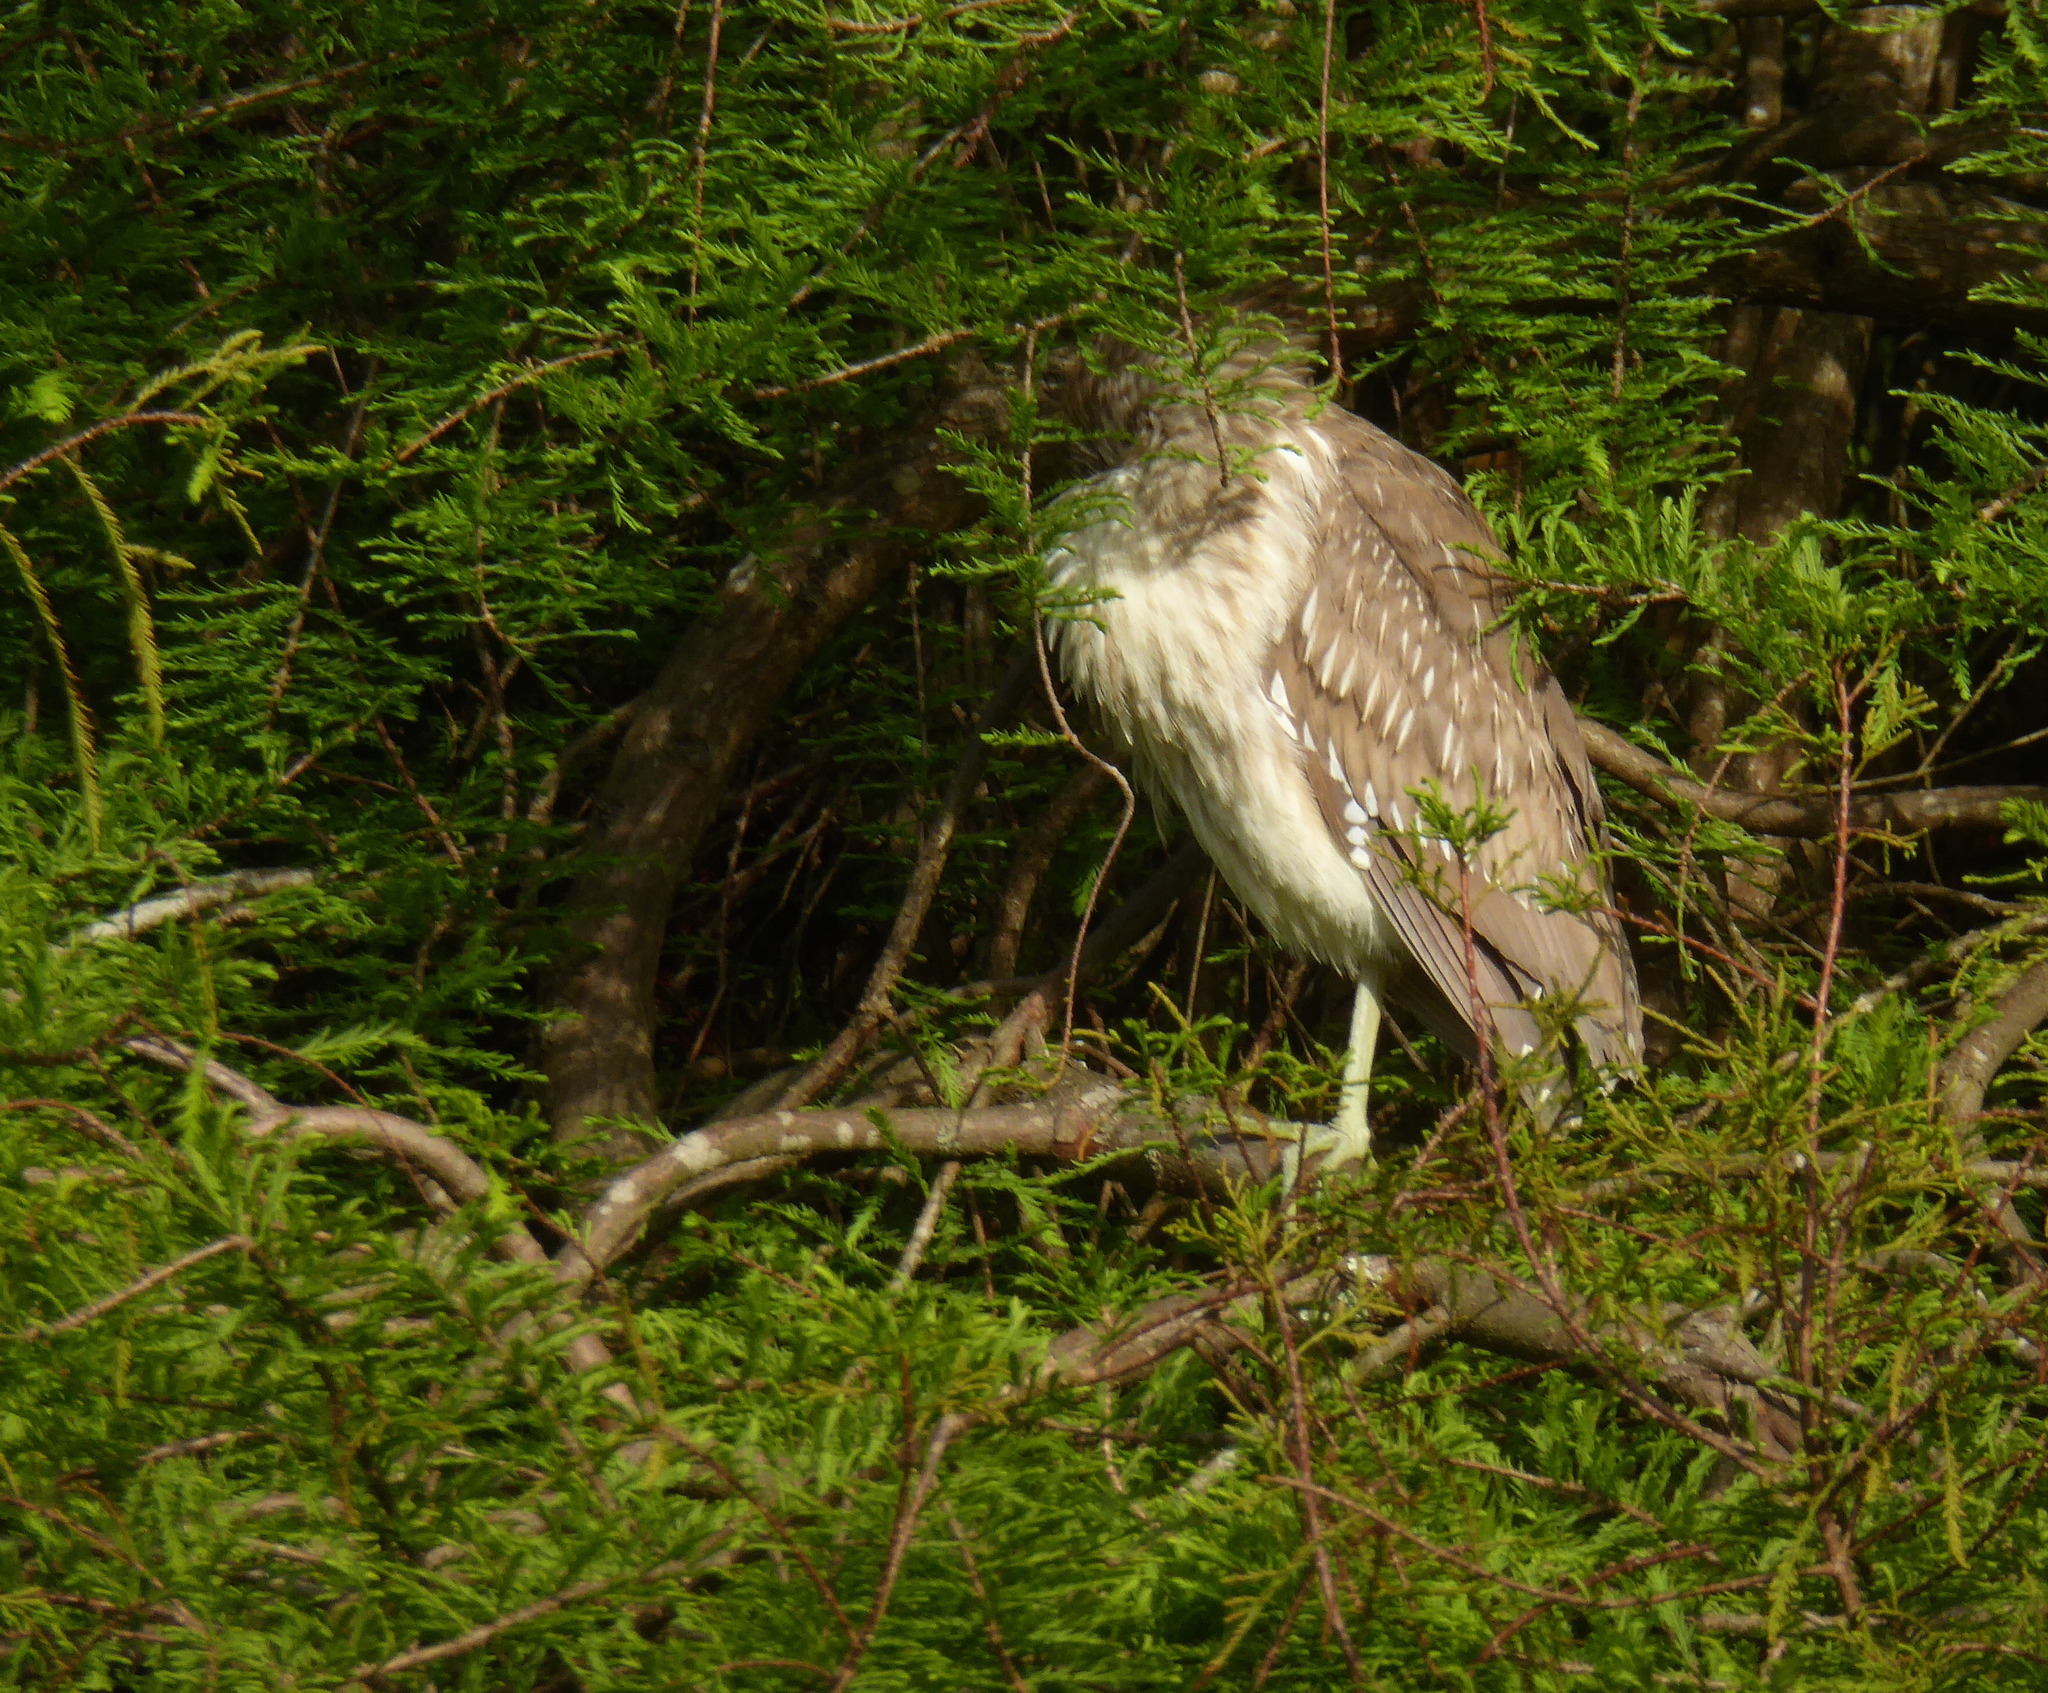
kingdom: Animalia
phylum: Chordata
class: Aves
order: Pelecaniformes
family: Ardeidae
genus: Nycticorax
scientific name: Nycticorax nycticorax
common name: Black-crowned night heron
